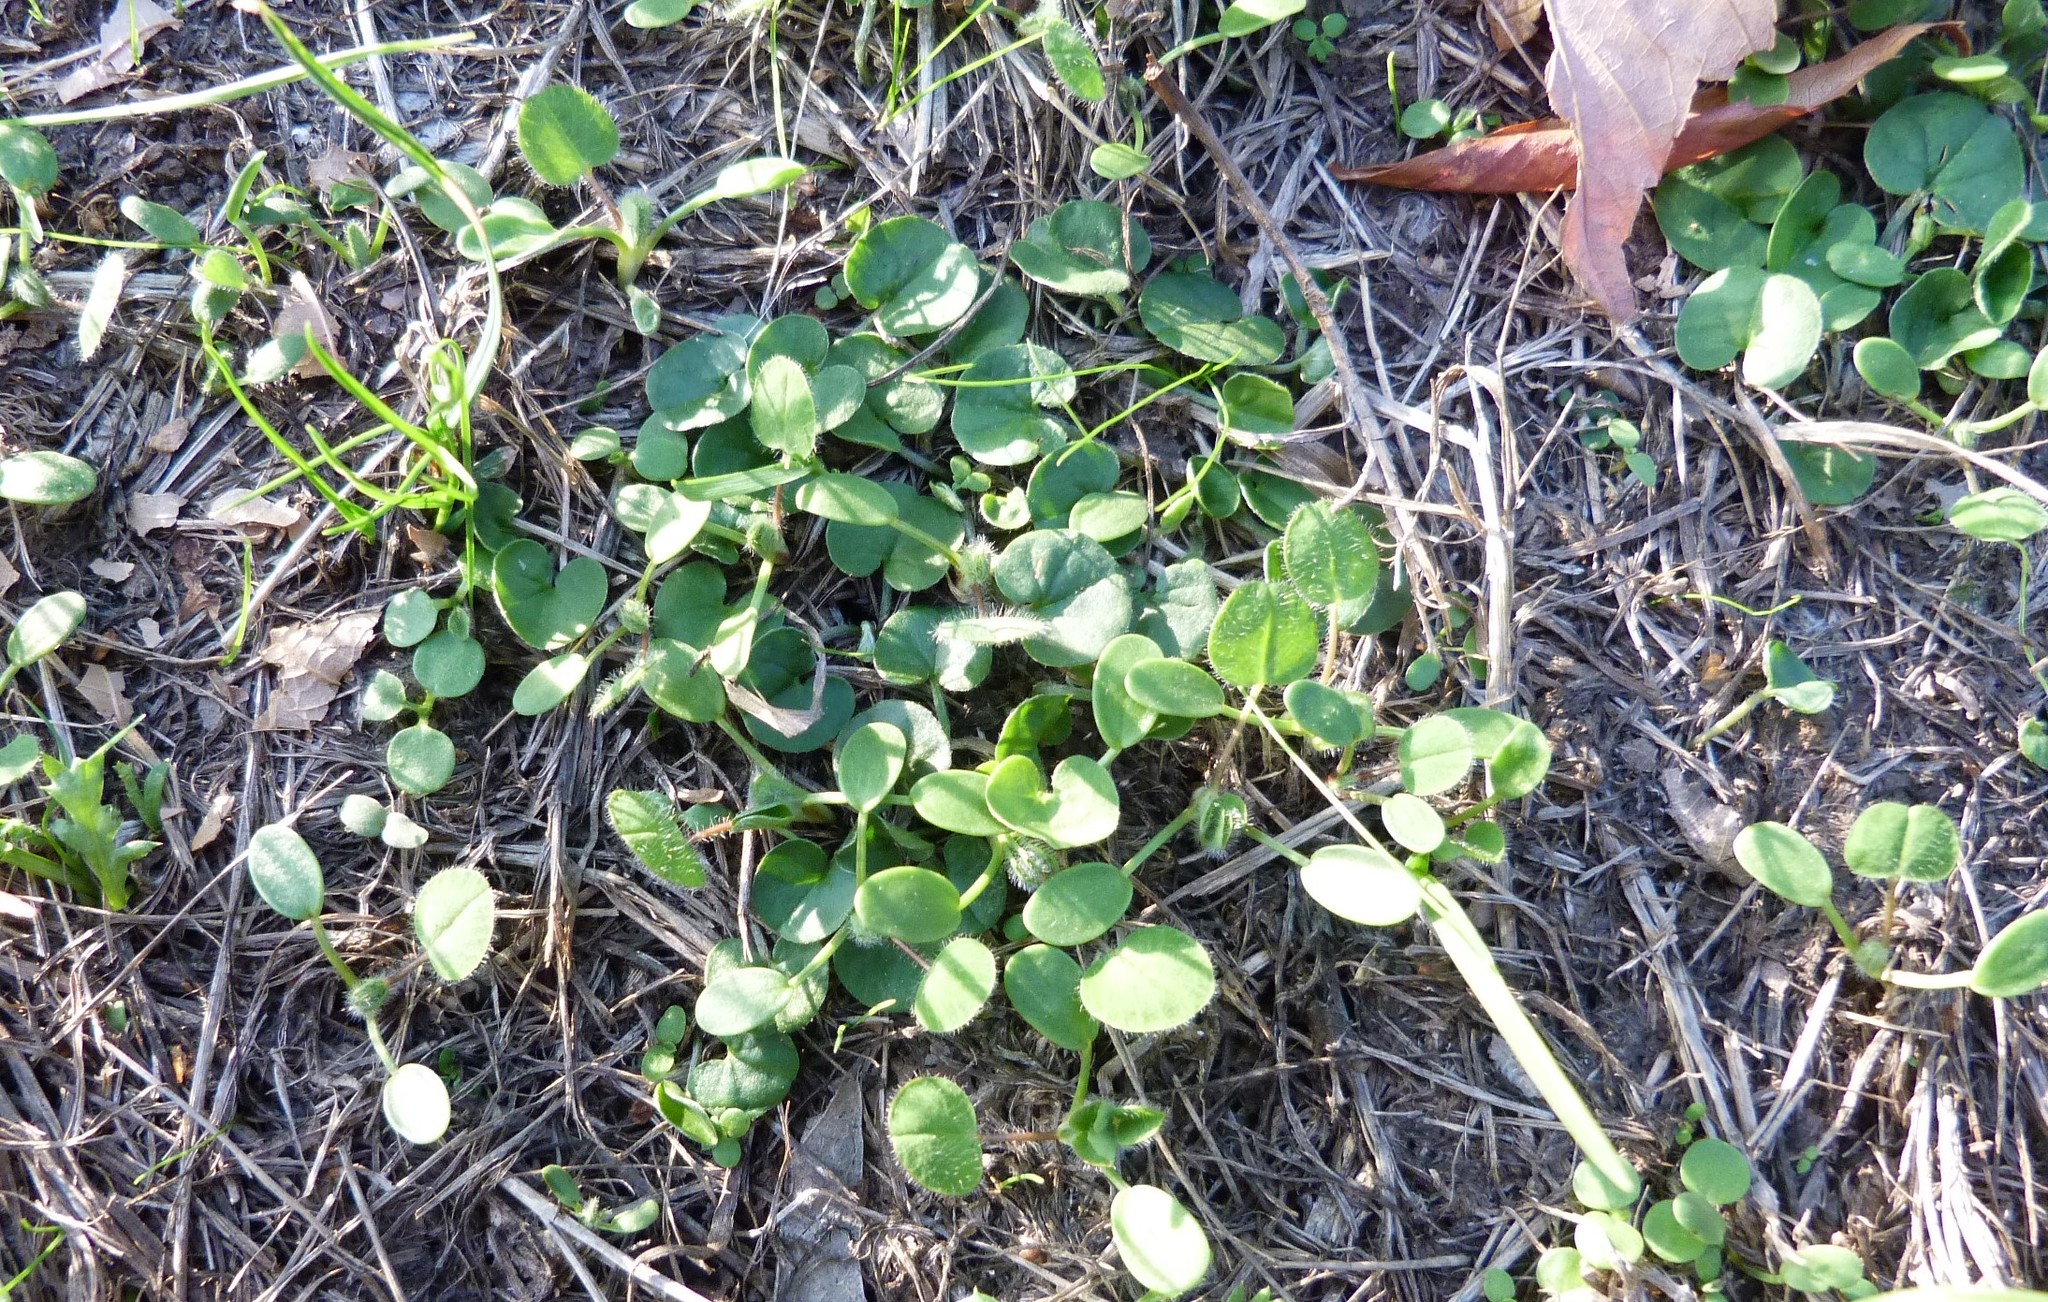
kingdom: Plantae
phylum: Tracheophyta
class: Magnoliopsida
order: Solanales
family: Convolvulaceae
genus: Dichondra
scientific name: Dichondra micrantha
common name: Kidneyweed
